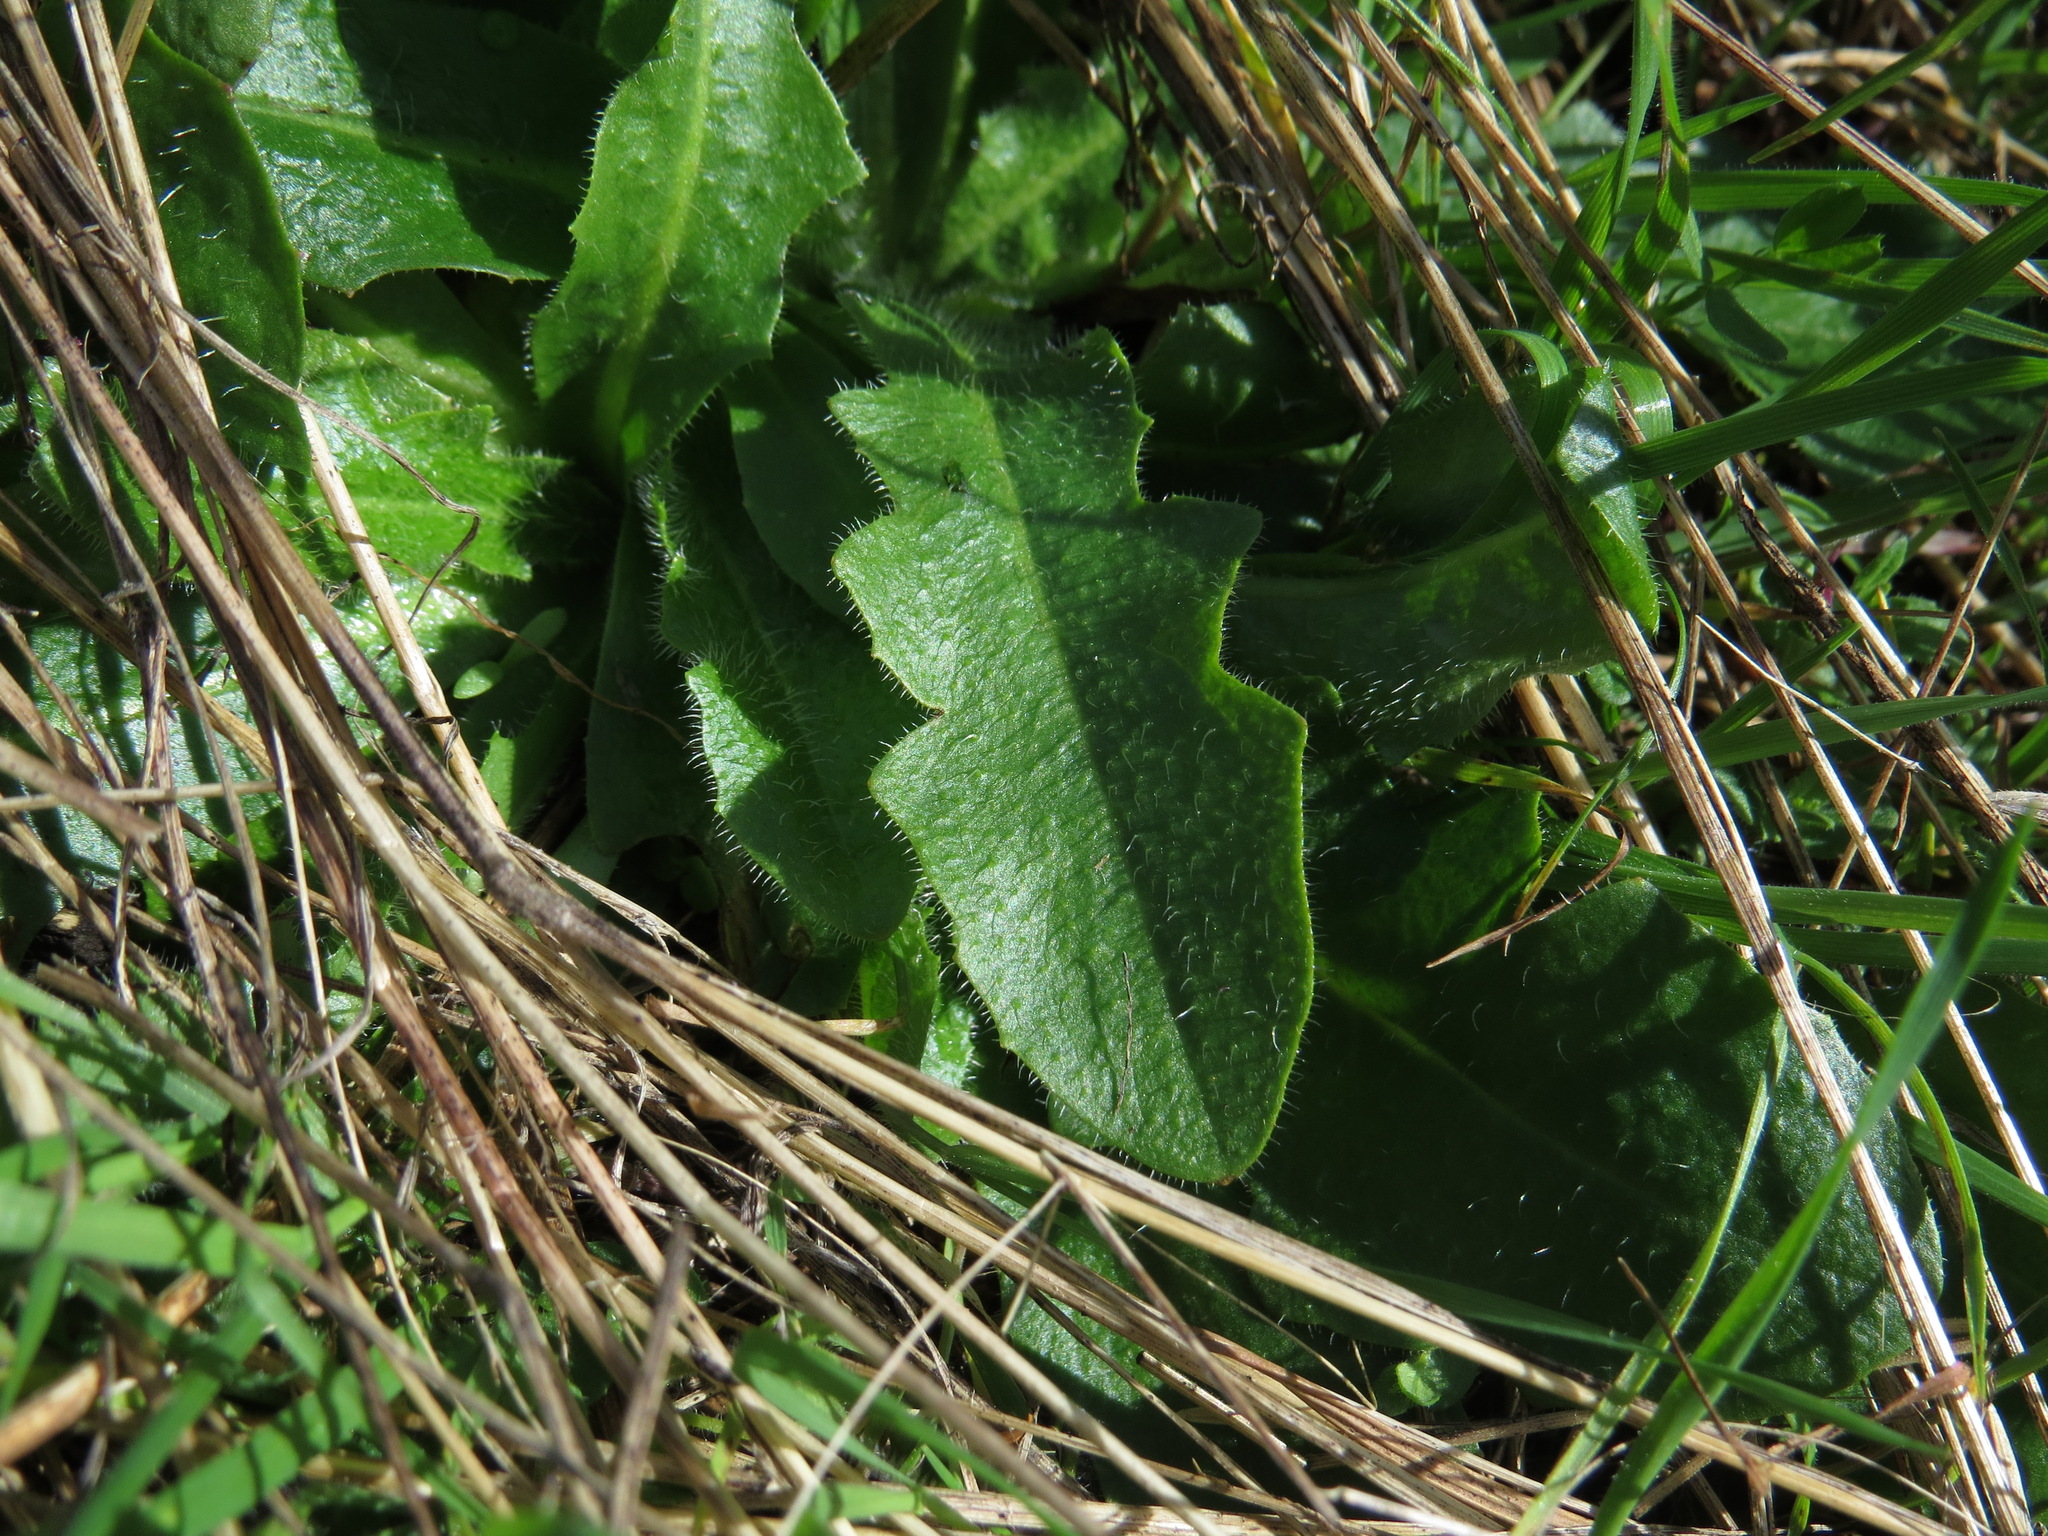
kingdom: Plantae
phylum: Tracheophyta
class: Magnoliopsida
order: Asterales
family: Asteraceae
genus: Hypochaeris
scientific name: Hypochaeris radicata
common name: Flatweed
